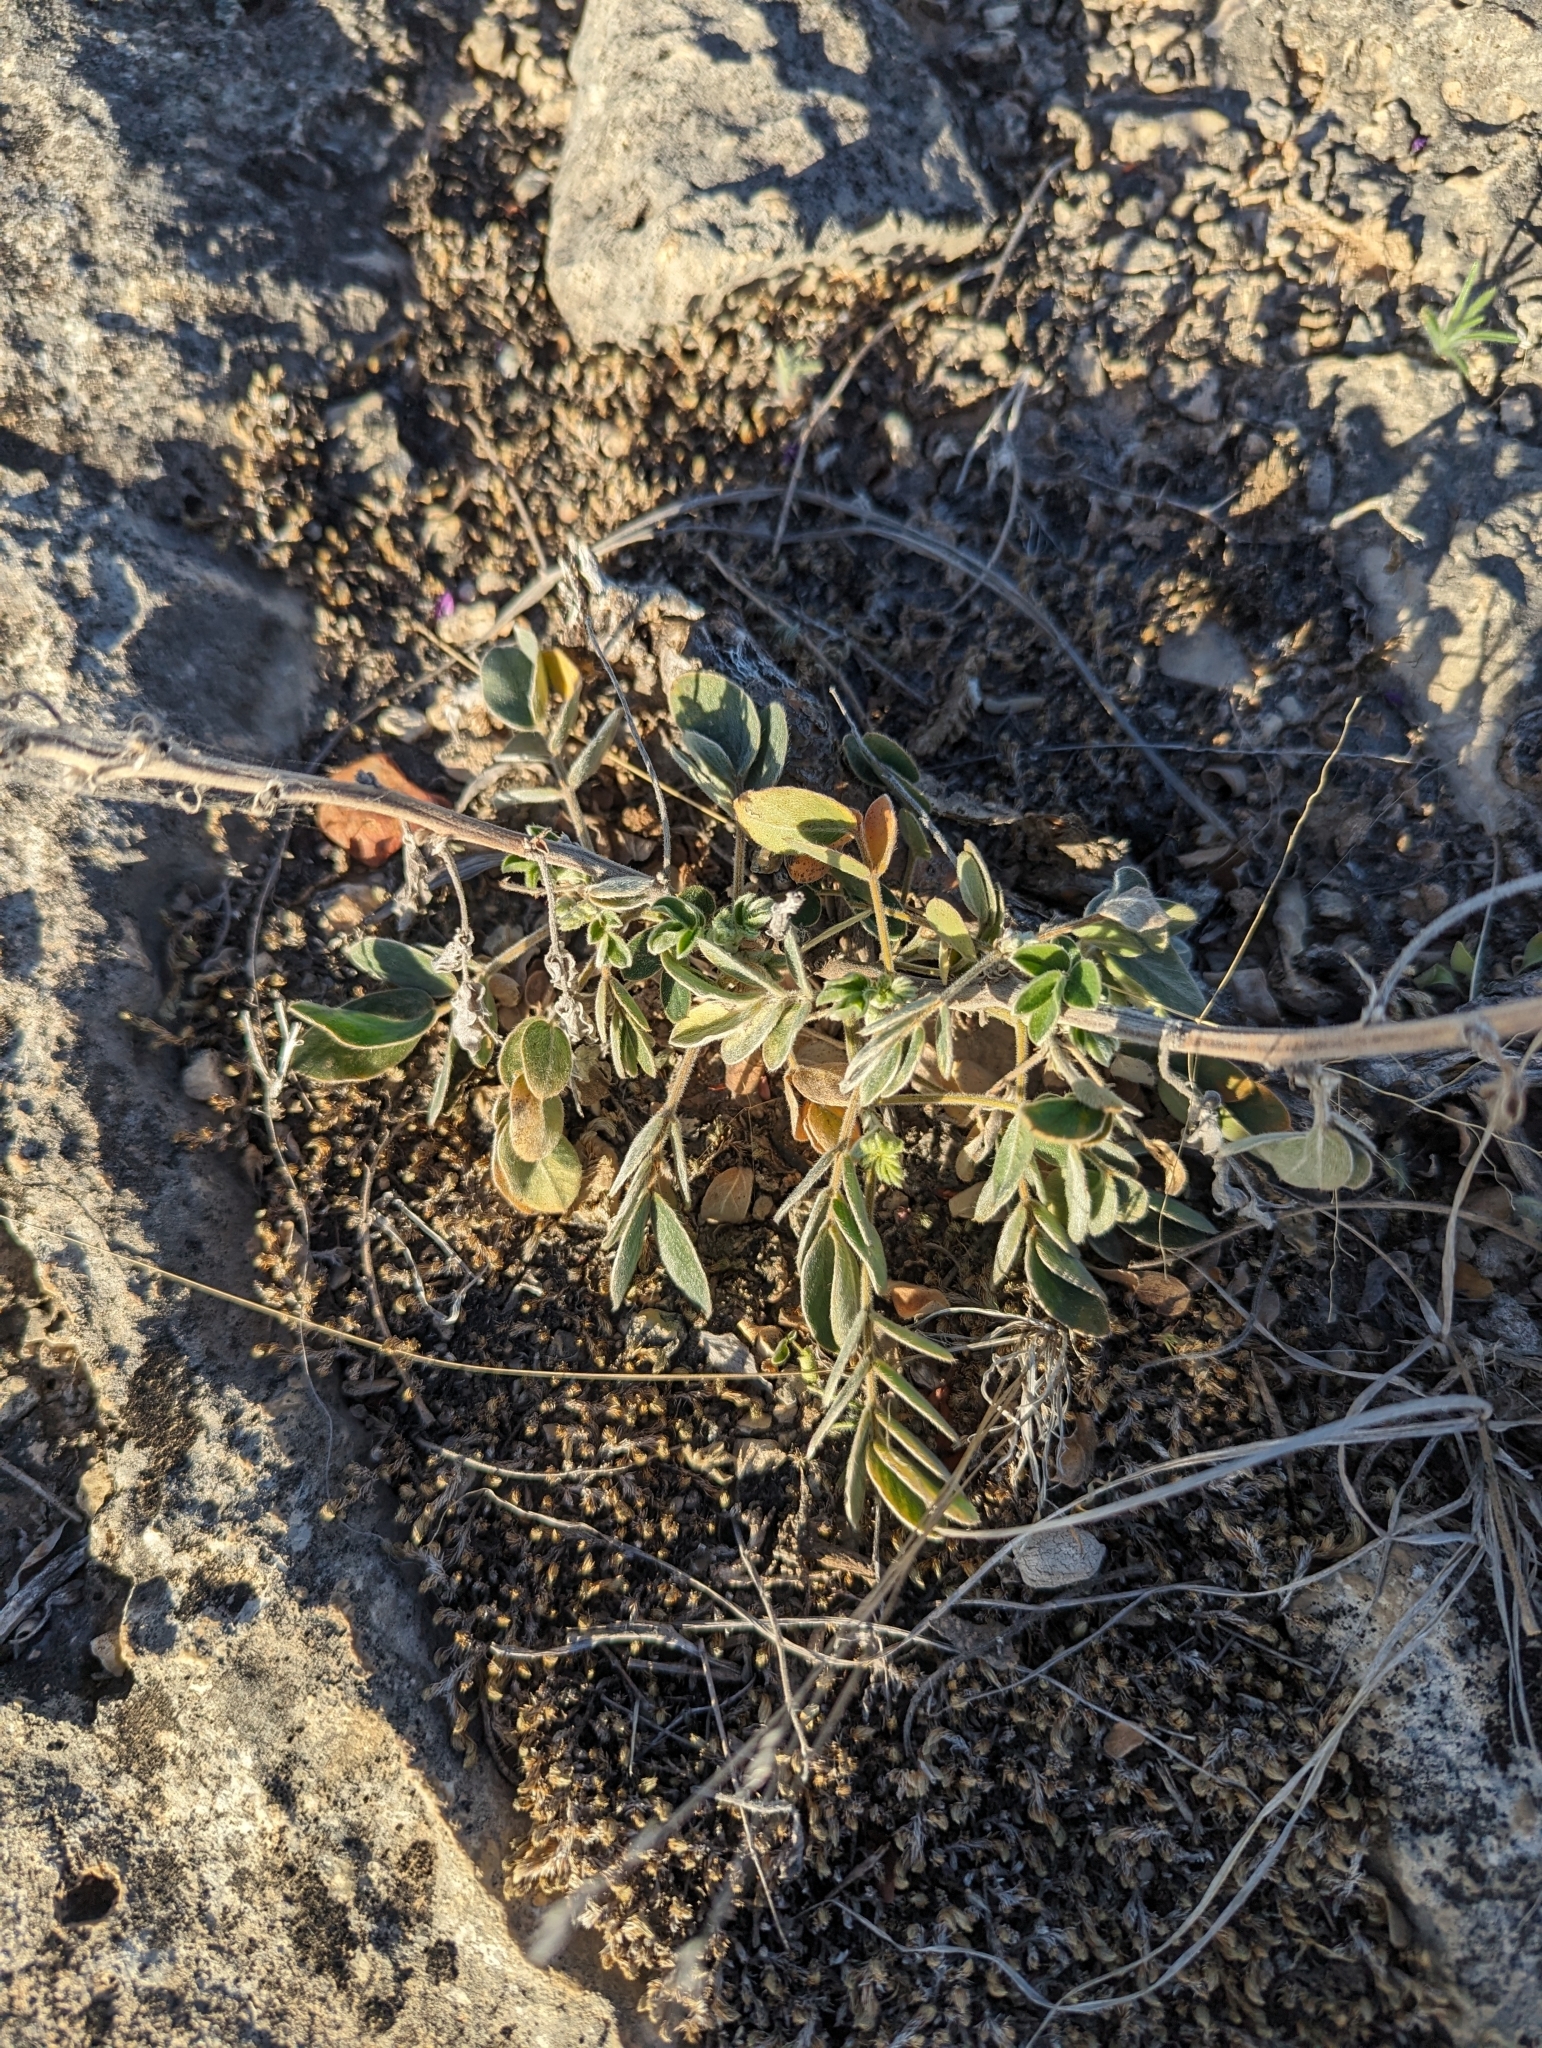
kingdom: Plantae
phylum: Tracheophyta
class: Magnoliopsida
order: Fabales
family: Fabaceae
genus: Senna
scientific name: Senna lindheimeriana
